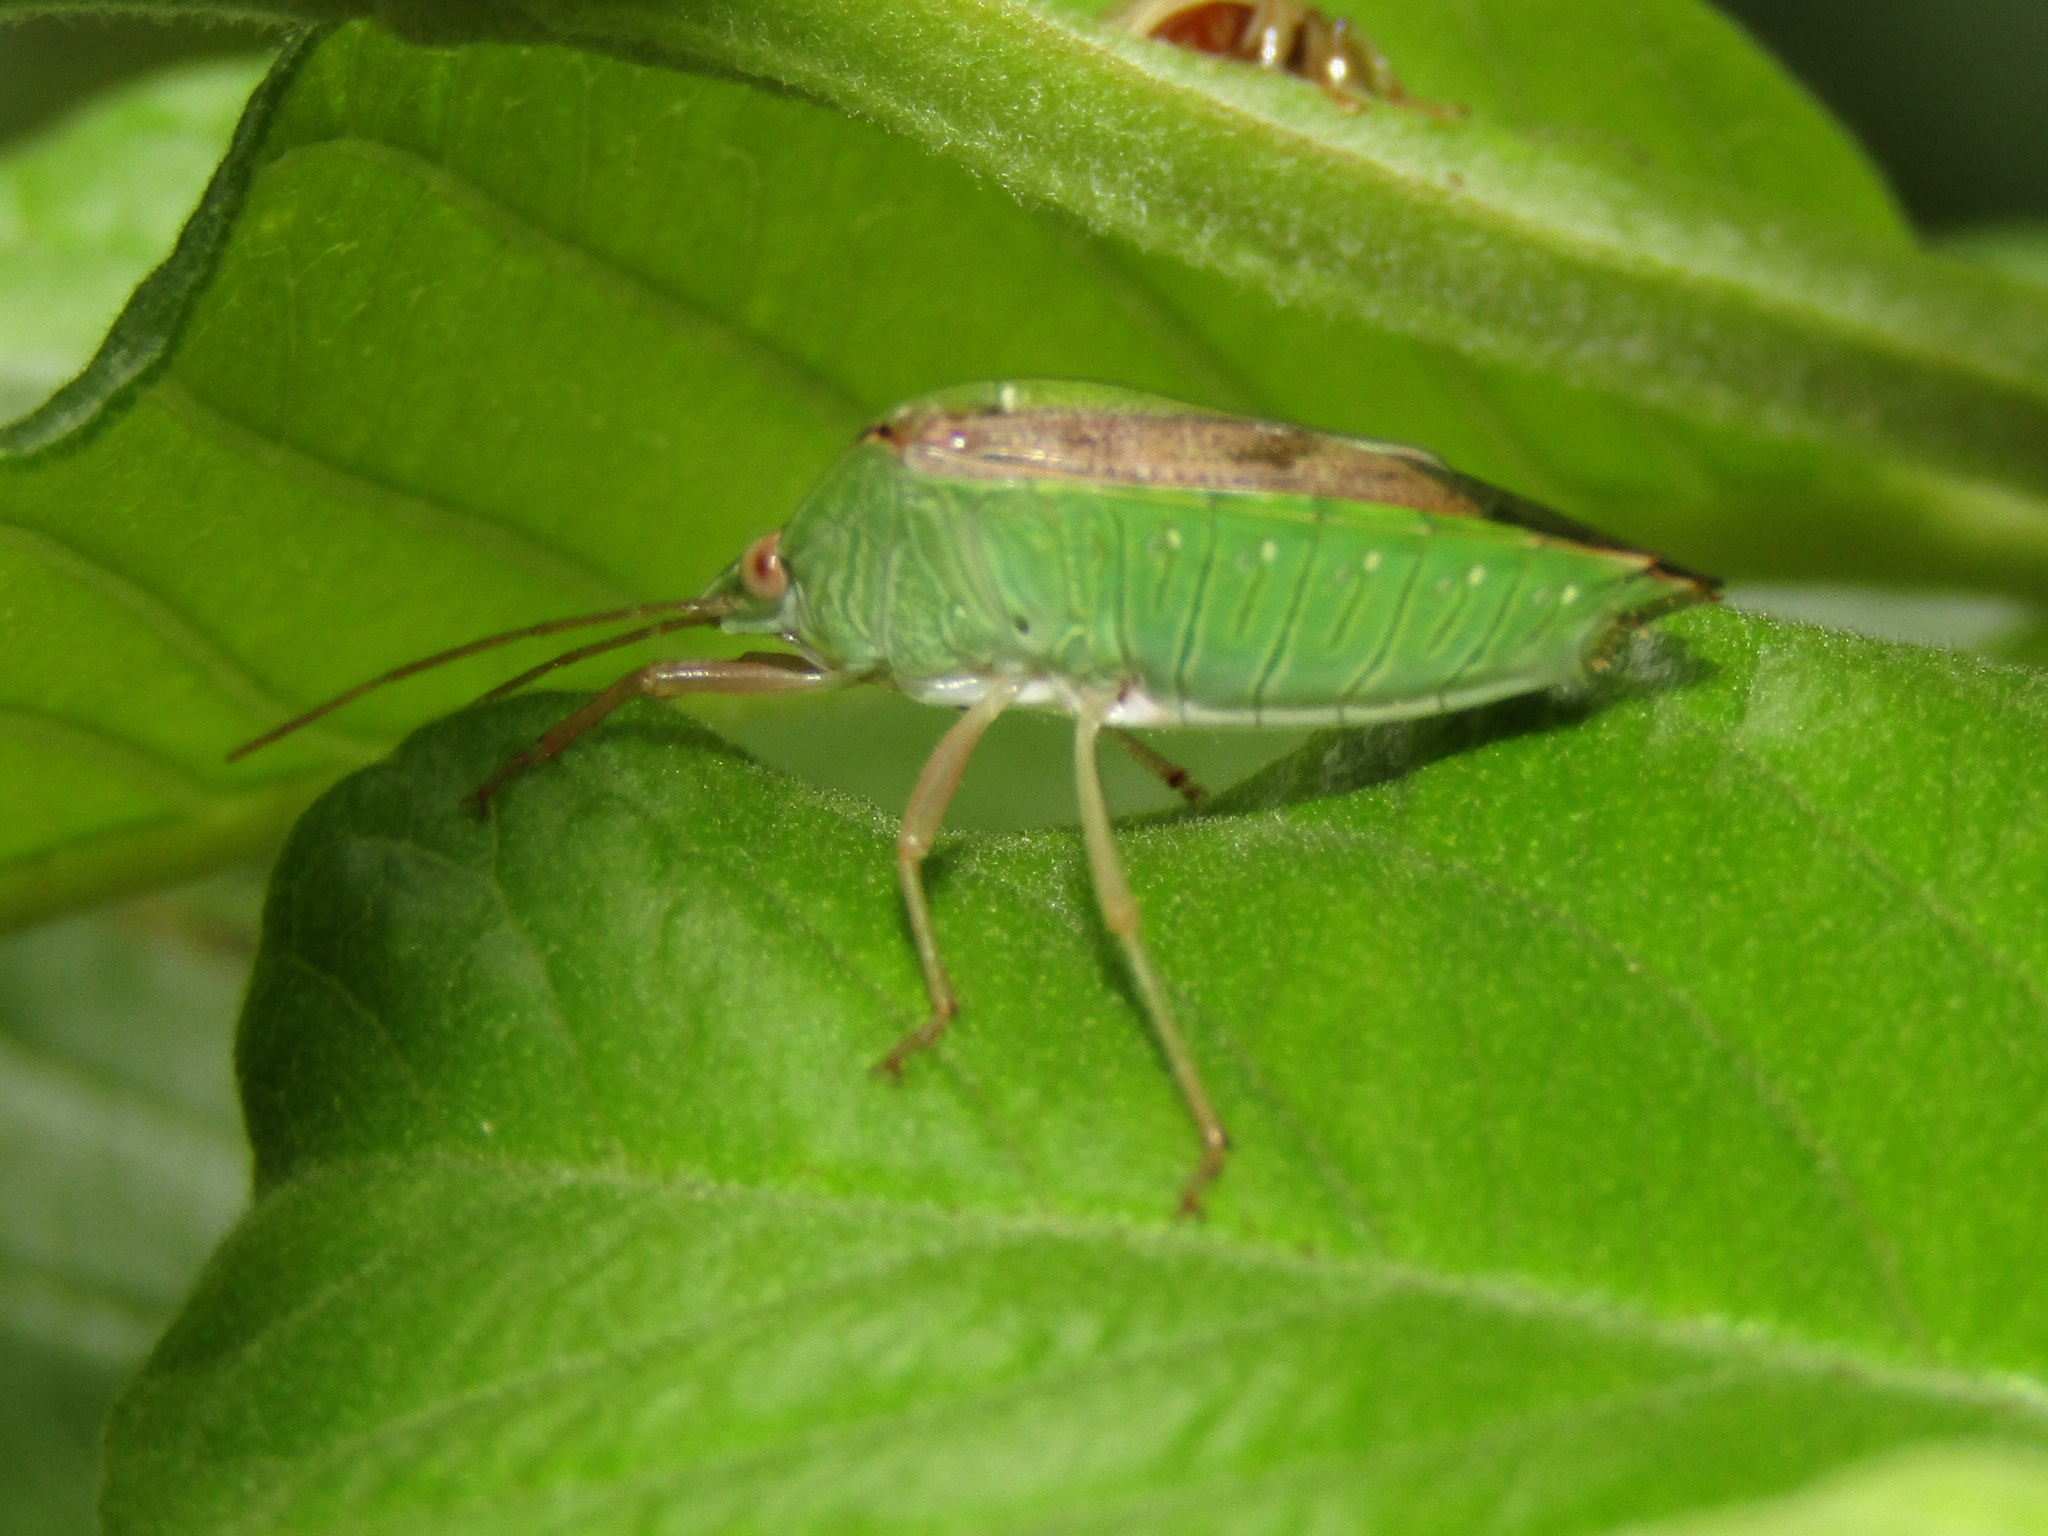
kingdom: Animalia
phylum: Arthropoda
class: Insecta
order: Hemiptera
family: Pentatomidae
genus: Hypoxys
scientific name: Hypoxys subrastratus
